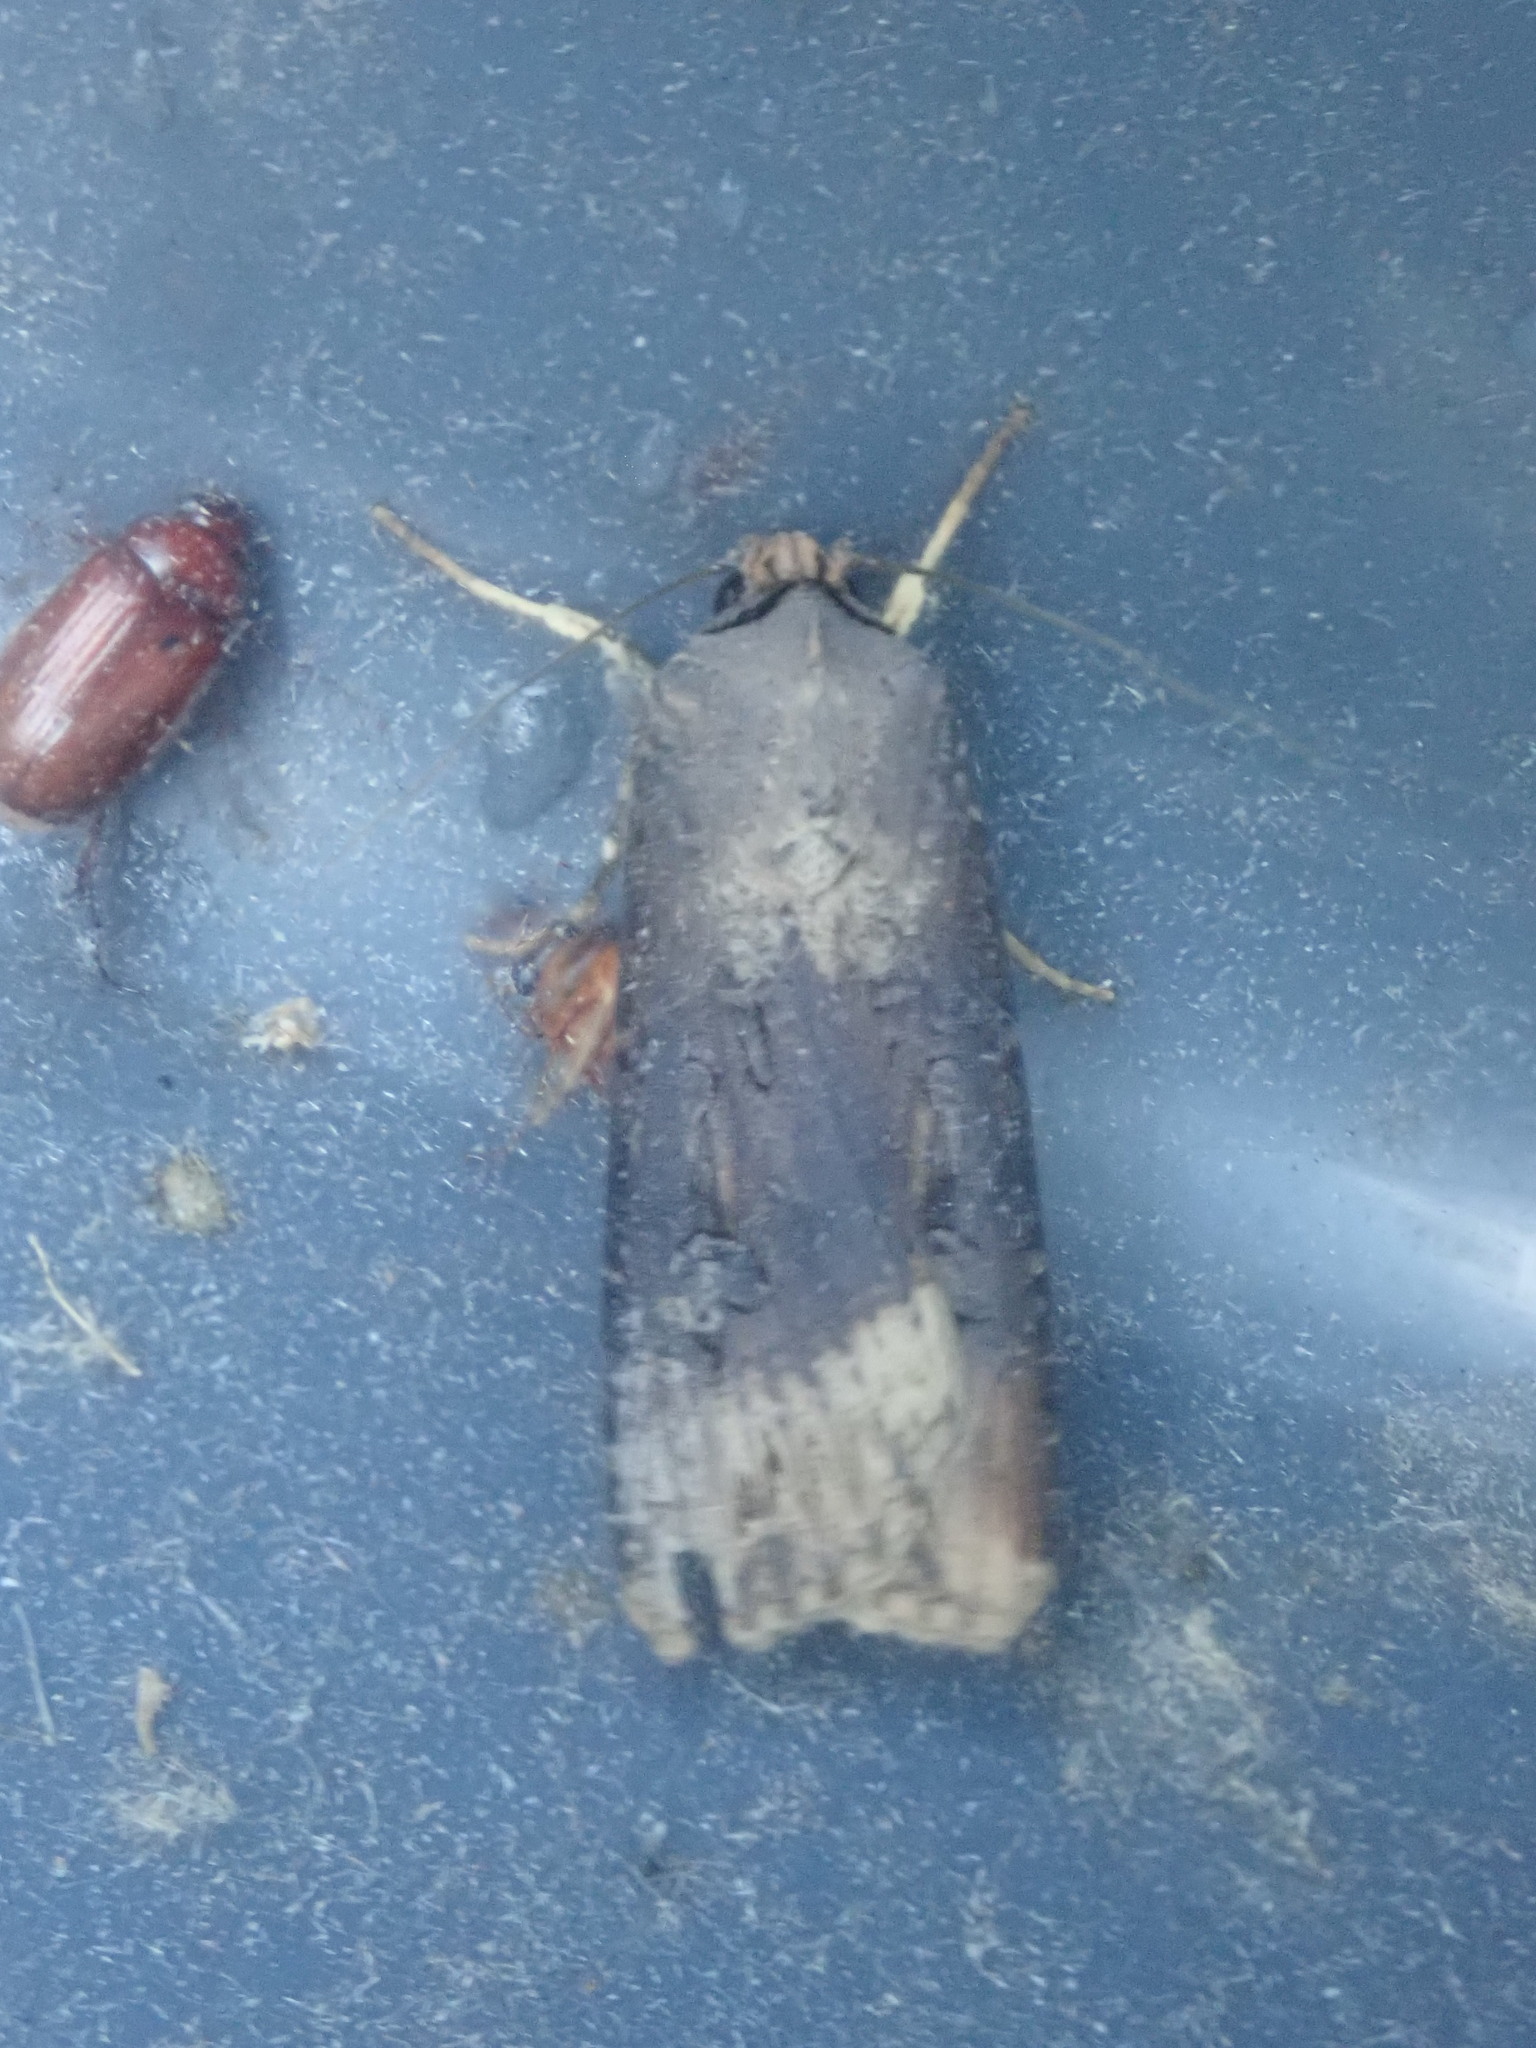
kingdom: Animalia
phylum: Arthropoda
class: Insecta
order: Lepidoptera
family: Noctuidae
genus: Agrotis
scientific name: Agrotis ipsilon
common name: Dark sword-grass
